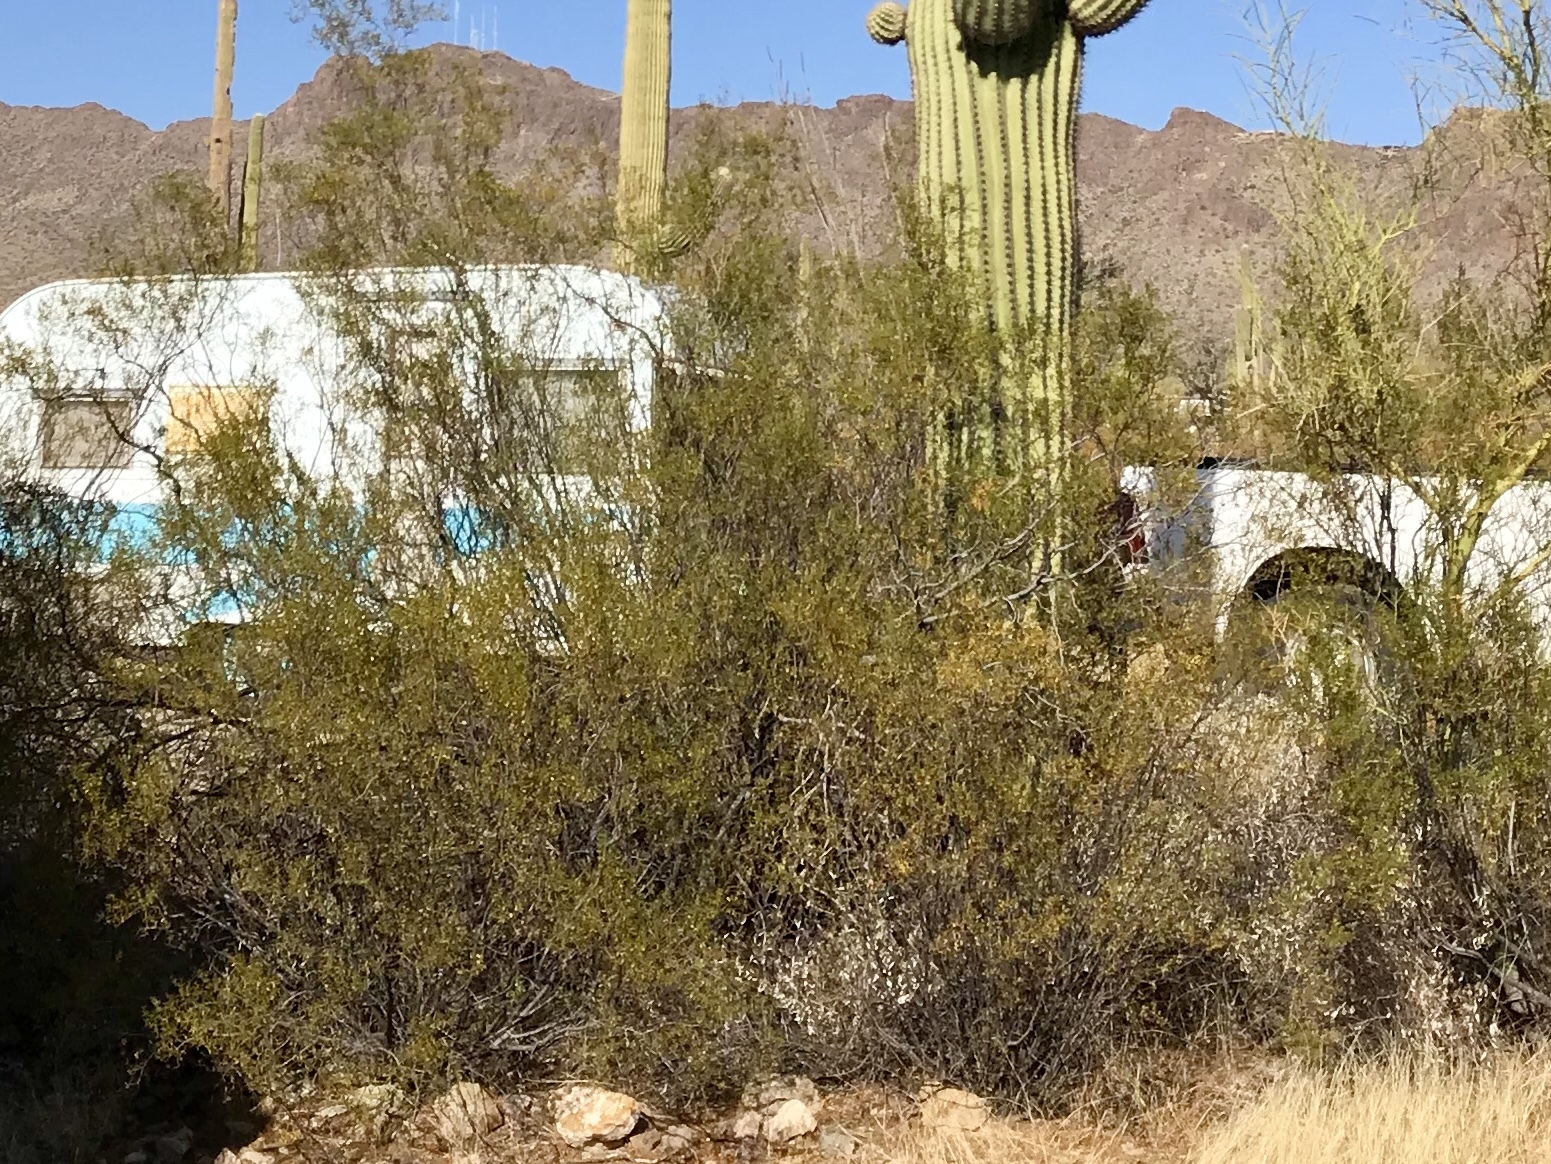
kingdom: Plantae
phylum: Tracheophyta
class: Magnoliopsida
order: Zygophyllales
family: Zygophyllaceae
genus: Larrea
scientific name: Larrea tridentata
